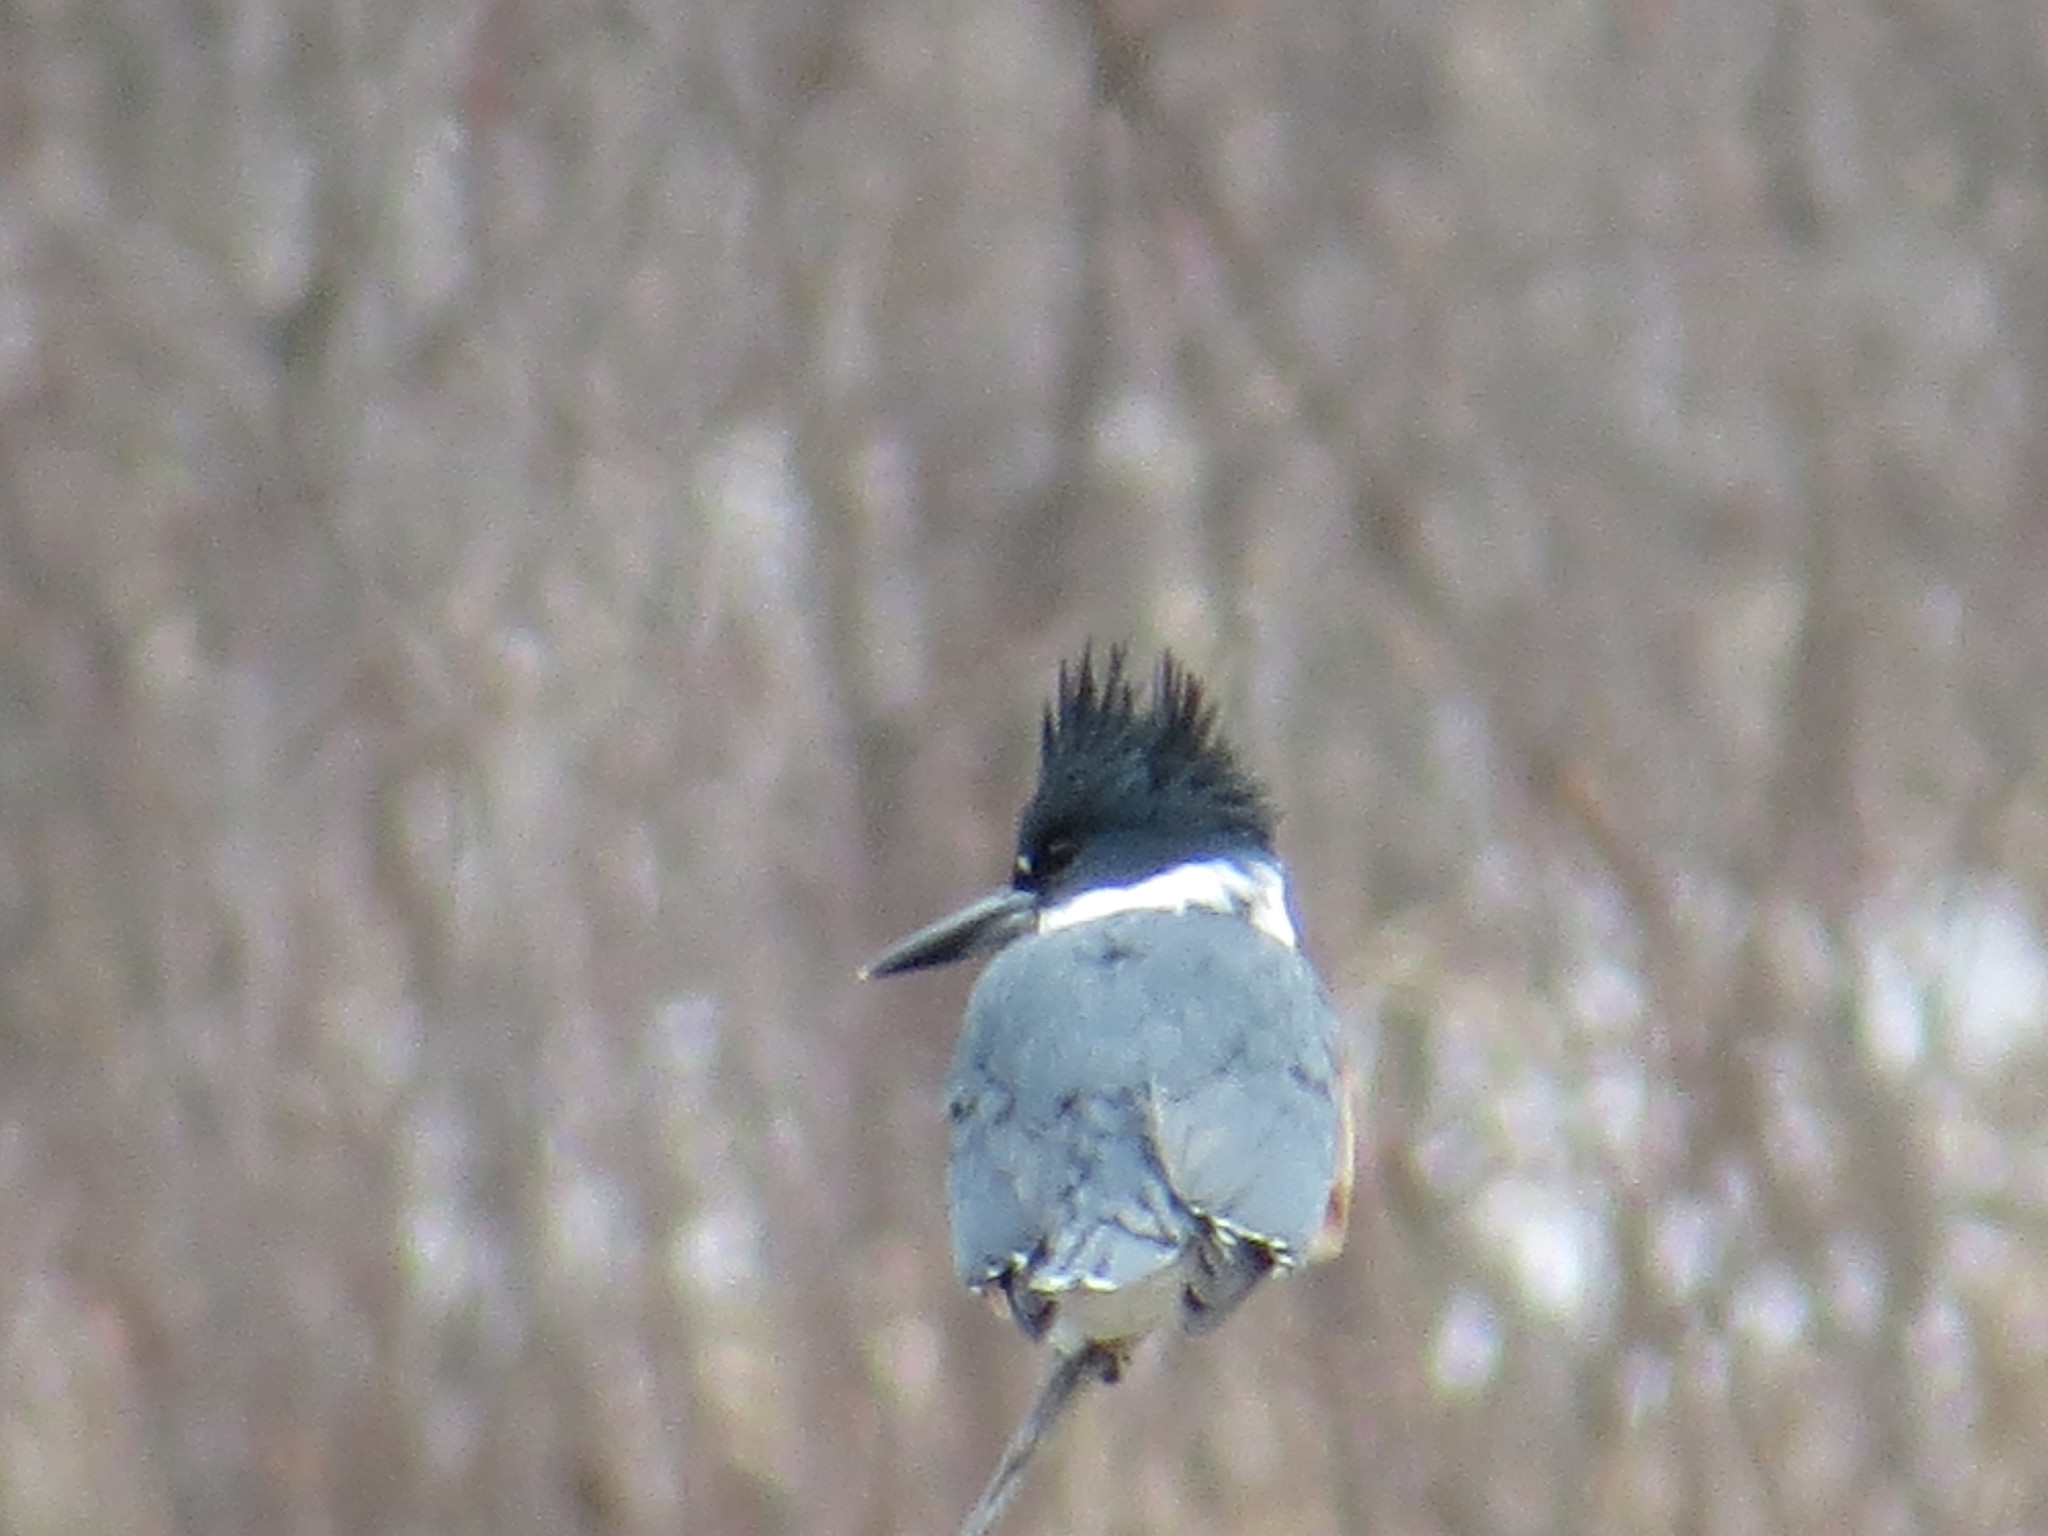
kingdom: Animalia
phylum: Chordata
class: Aves
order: Coraciiformes
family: Alcedinidae
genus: Megaceryle
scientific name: Megaceryle alcyon
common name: Belted kingfisher
